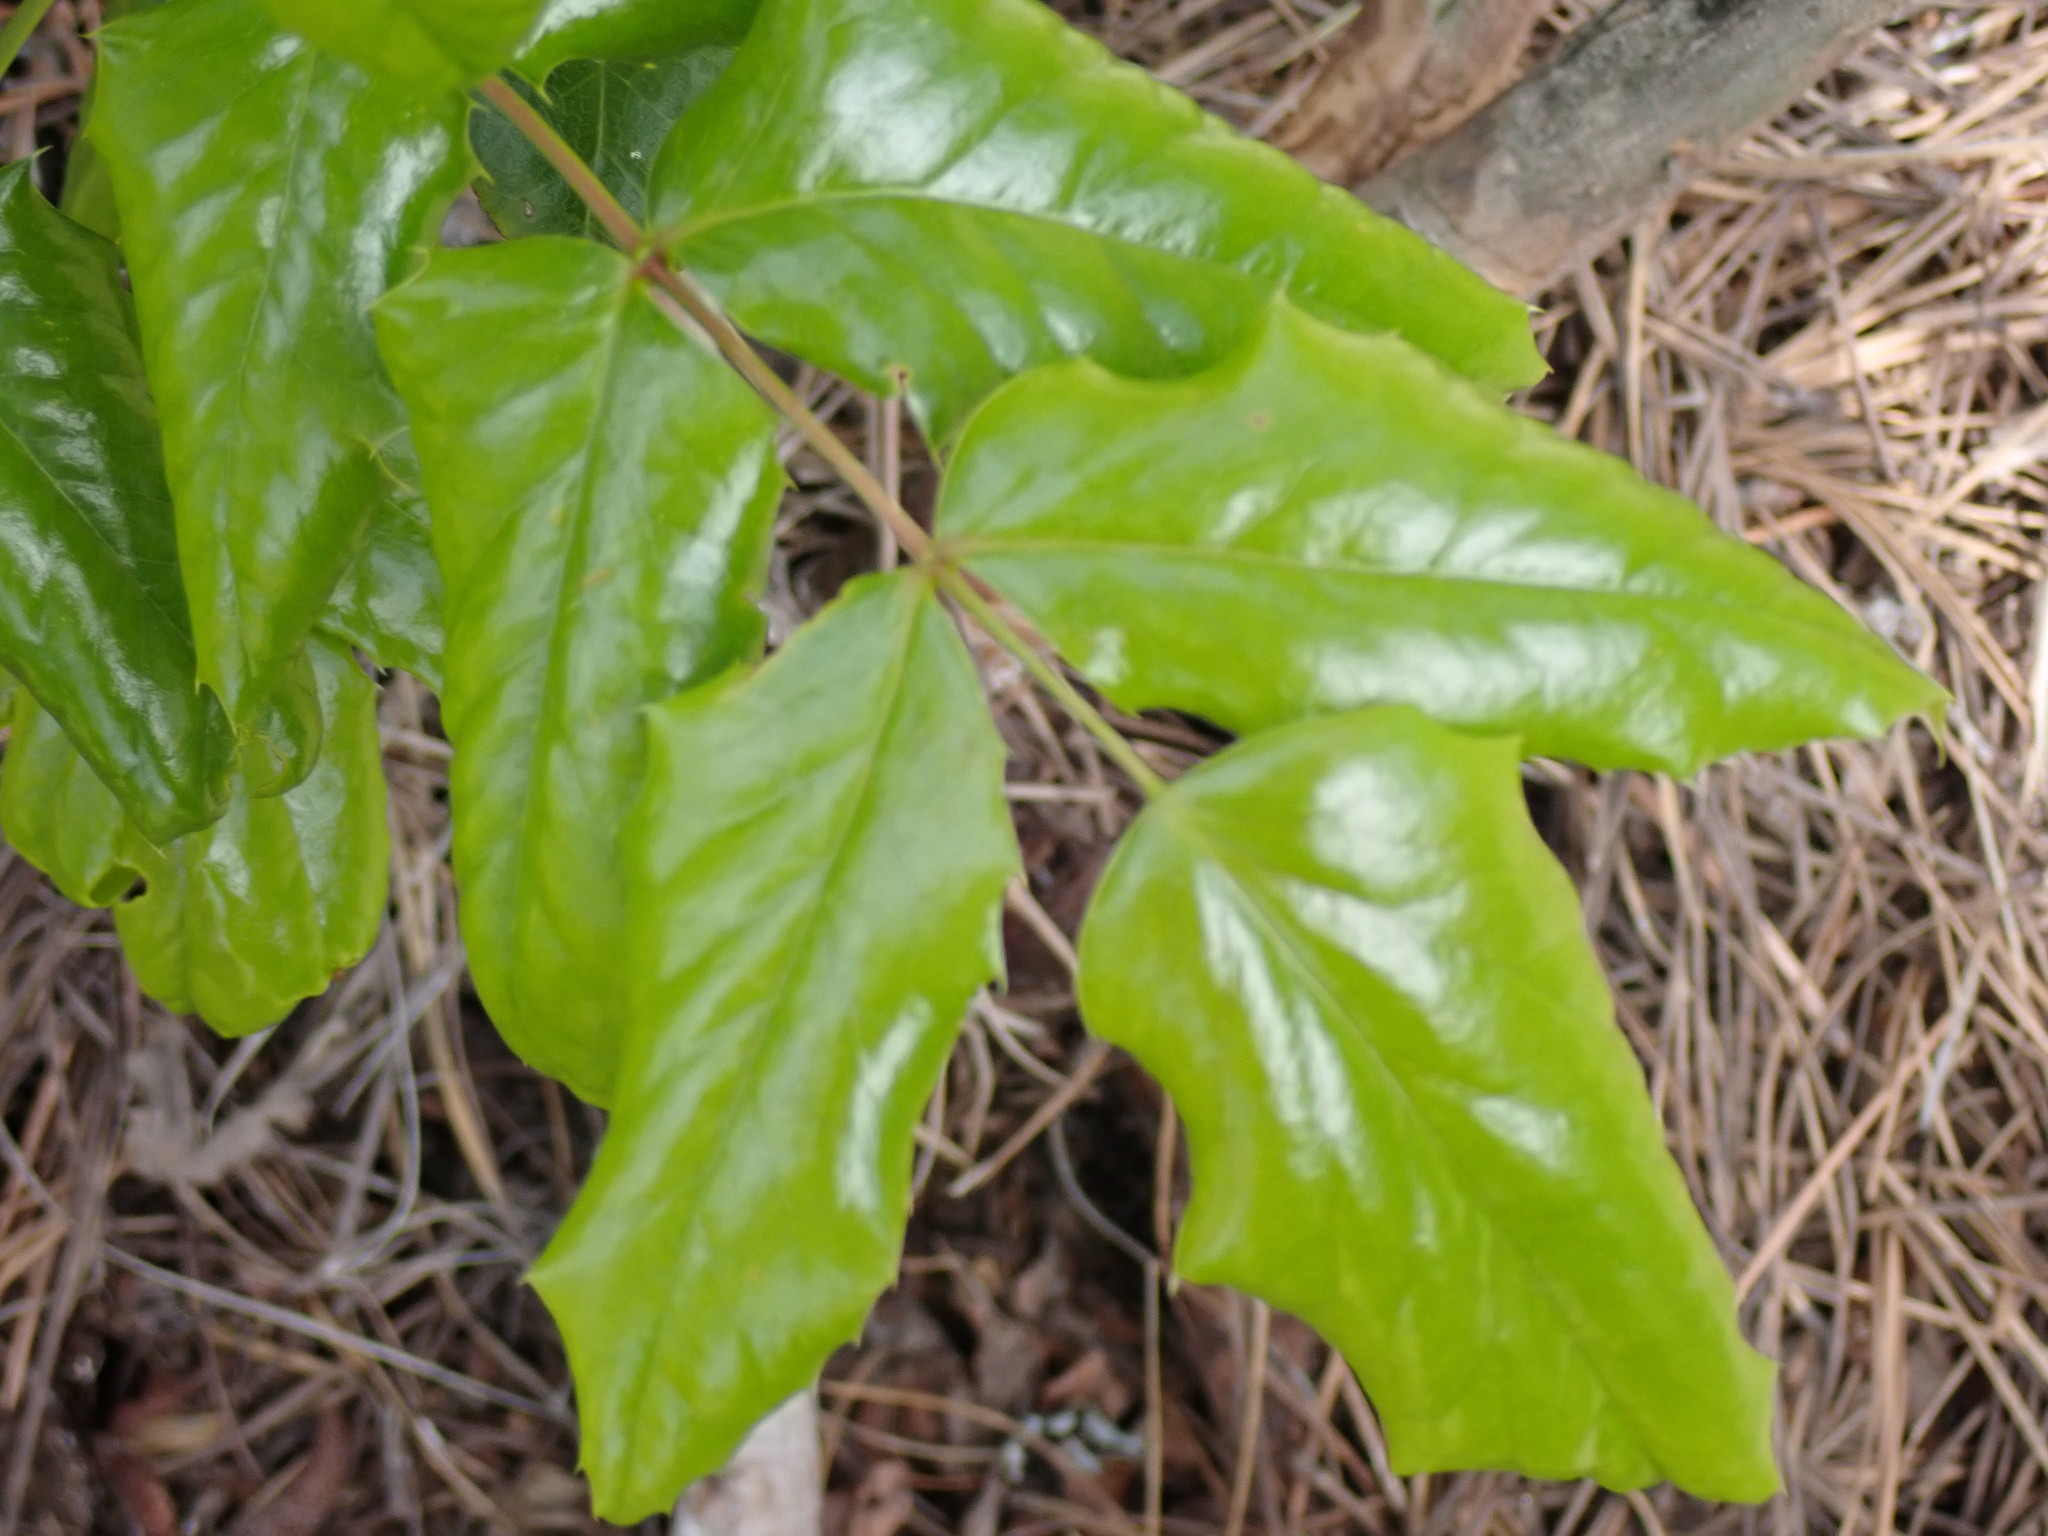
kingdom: Plantae
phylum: Tracheophyta
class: Magnoliopsida
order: Ranunculales
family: Berberidaceae
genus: Mahonia
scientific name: Mahonia aquifolium
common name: Oregon-grape
